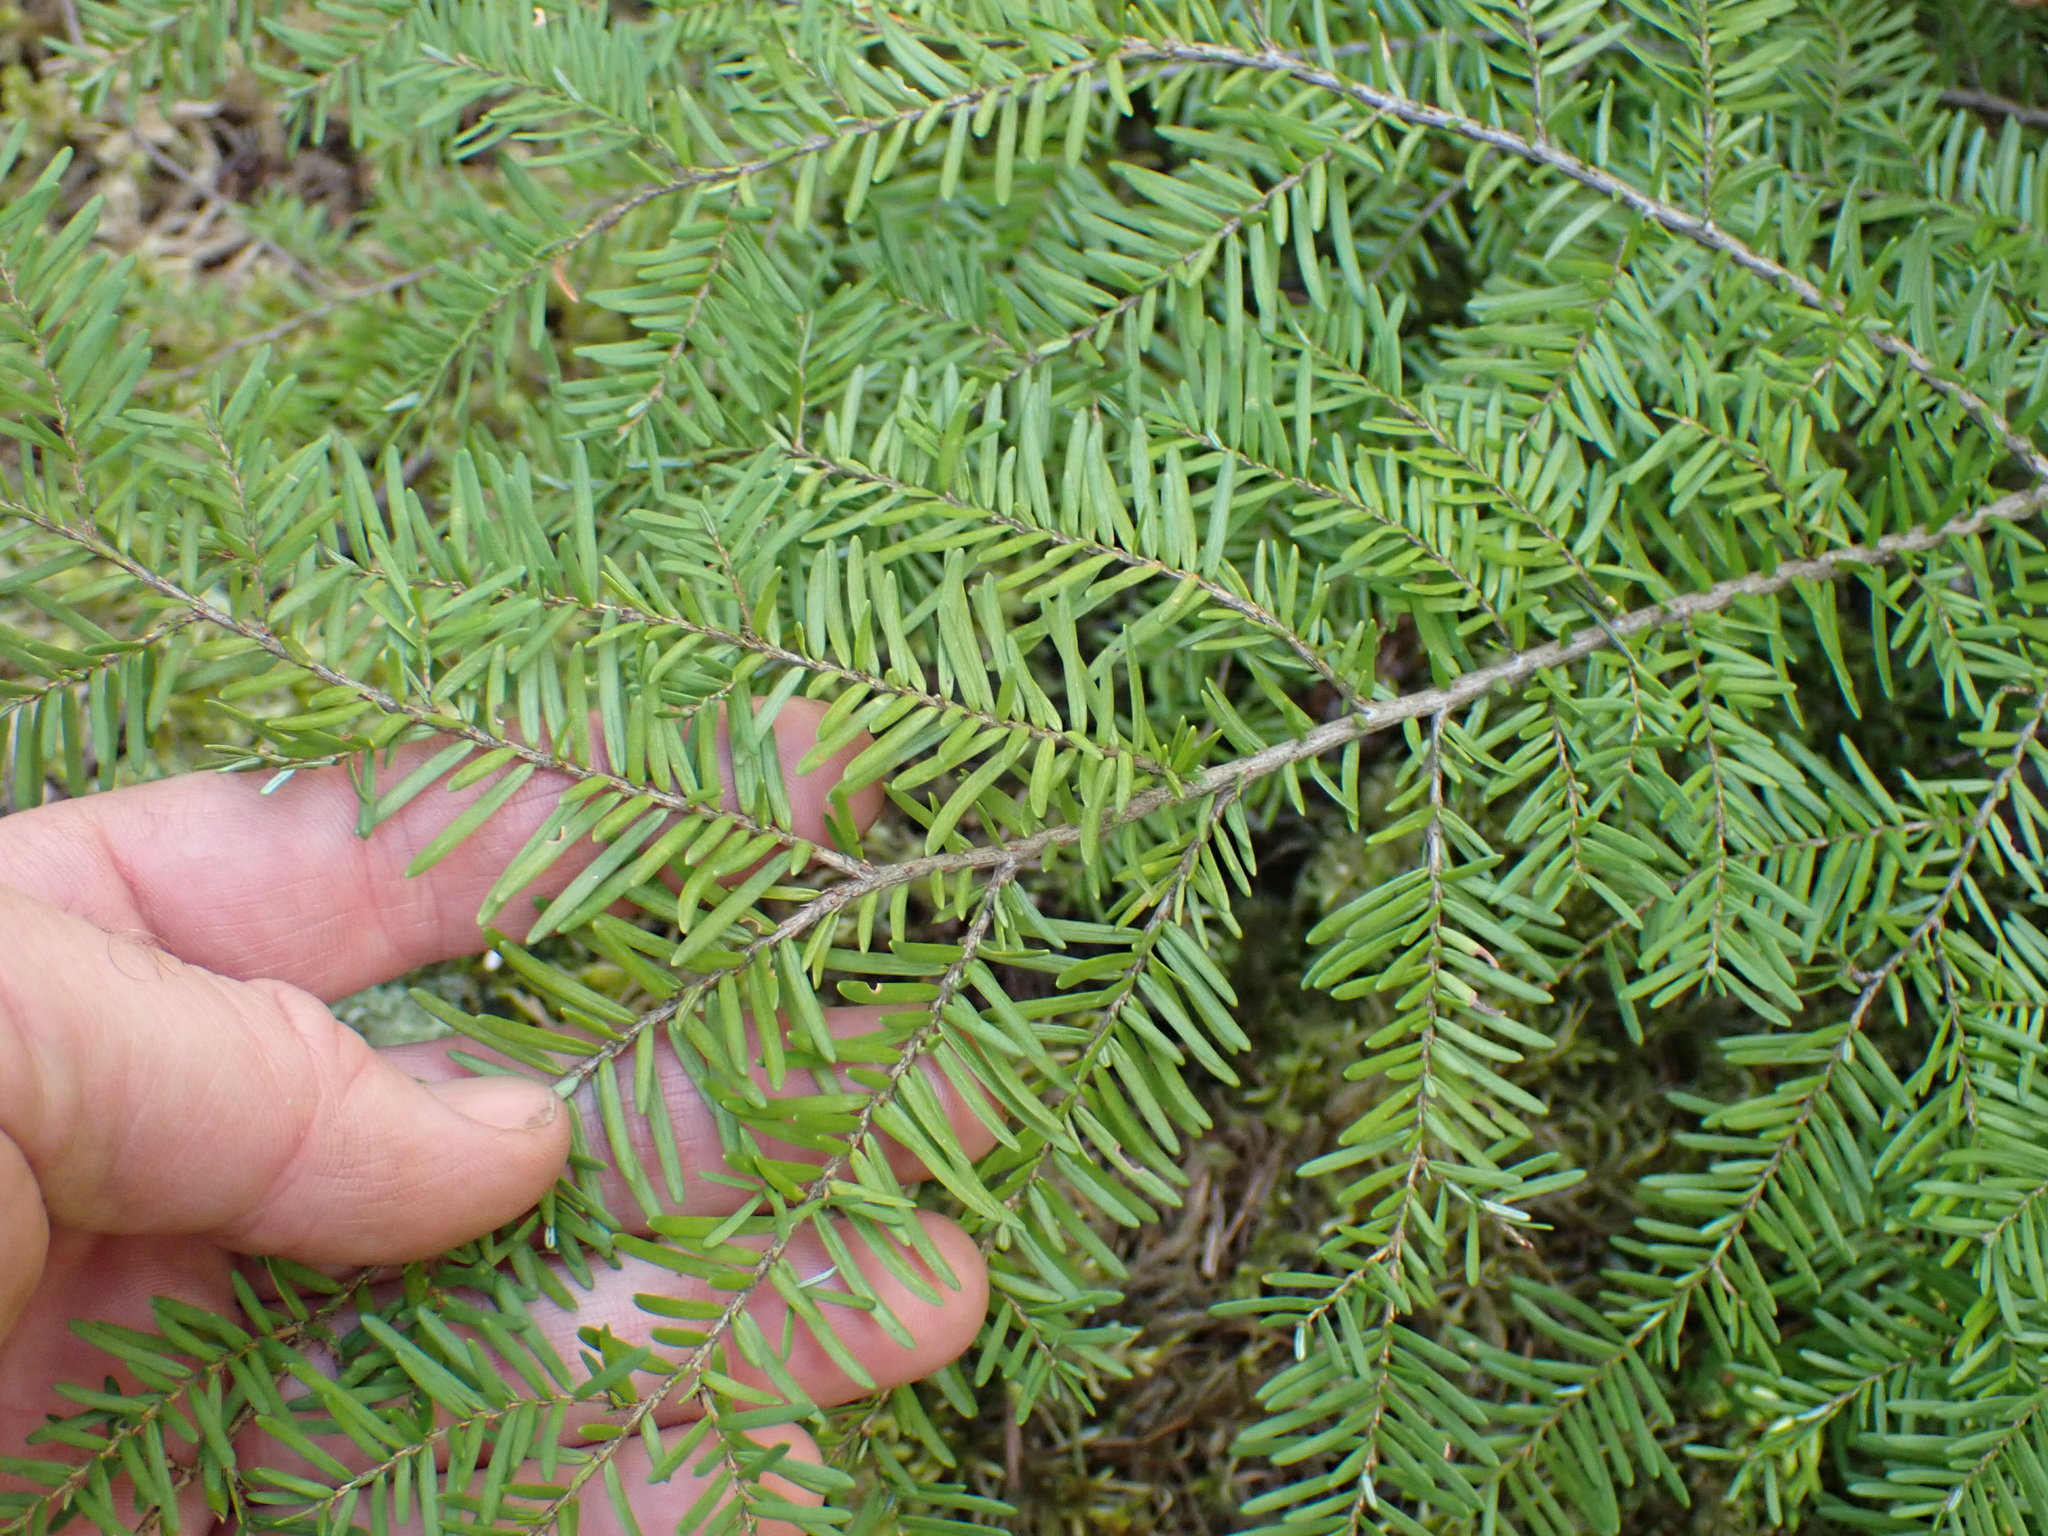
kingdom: Plantae
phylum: Tracheophyta
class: Pinopsida
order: Pinales
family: Pinaceae
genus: Tsuga
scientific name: Tsuga heterophylla
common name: Western hemlock
